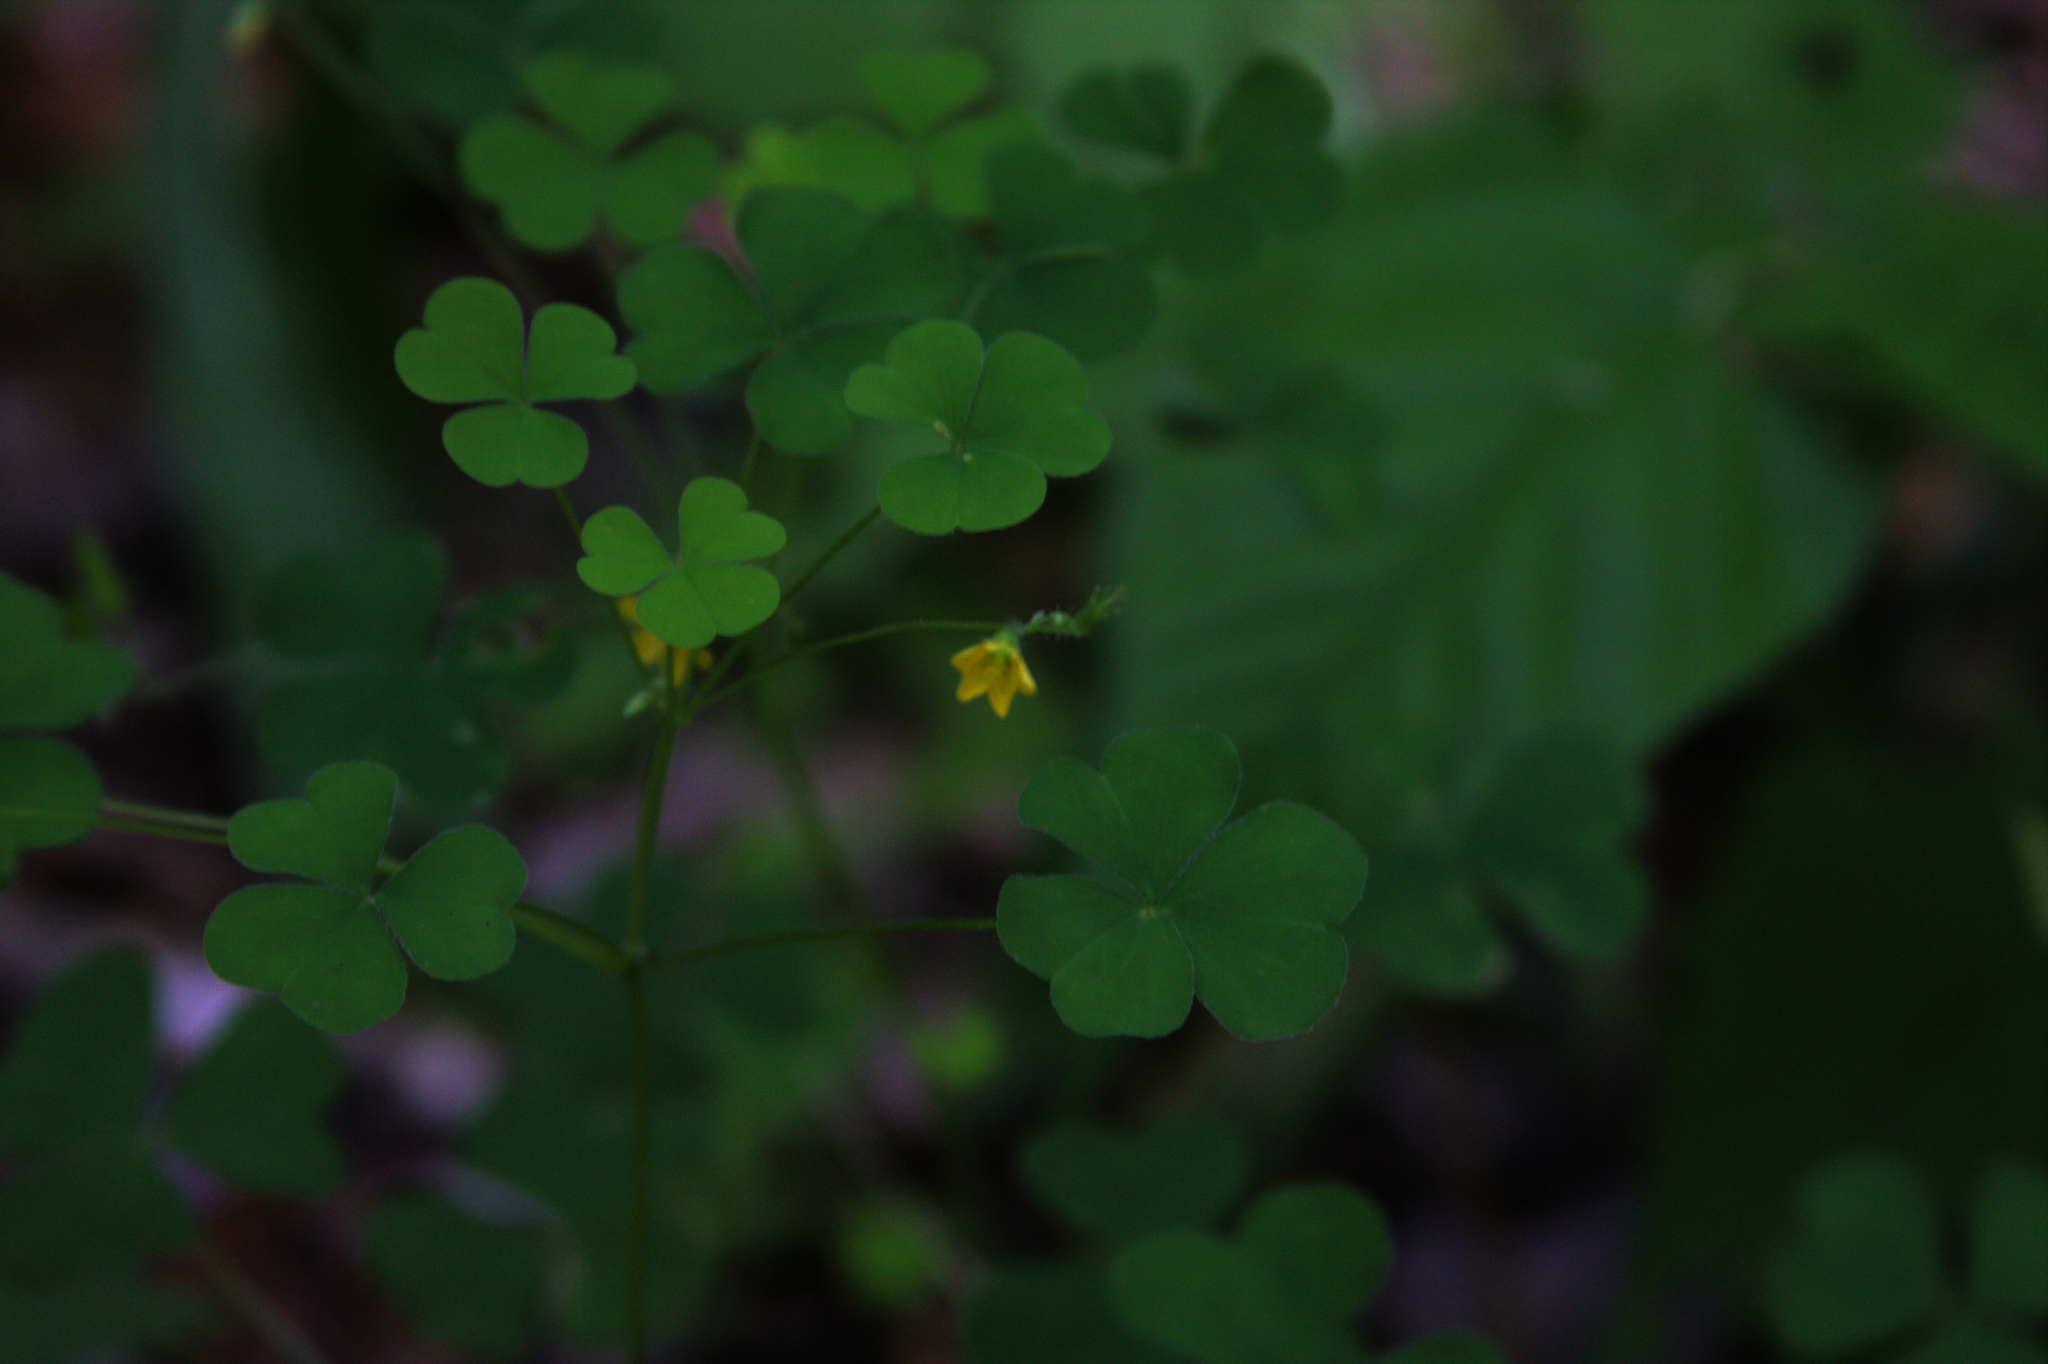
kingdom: Plantae
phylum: Tracheophyta
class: Magnoliopsida
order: Oxalidales
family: Oxalidaceae
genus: Oxalis
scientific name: Oxalis stricta
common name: Upright yellow-sorrel
